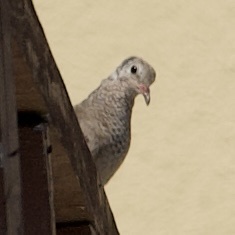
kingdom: Animalia
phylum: Chordata
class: Aves
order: Columbiformes
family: Columbidae
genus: Columbina
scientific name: Columbina passerina
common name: Common ground-dove
